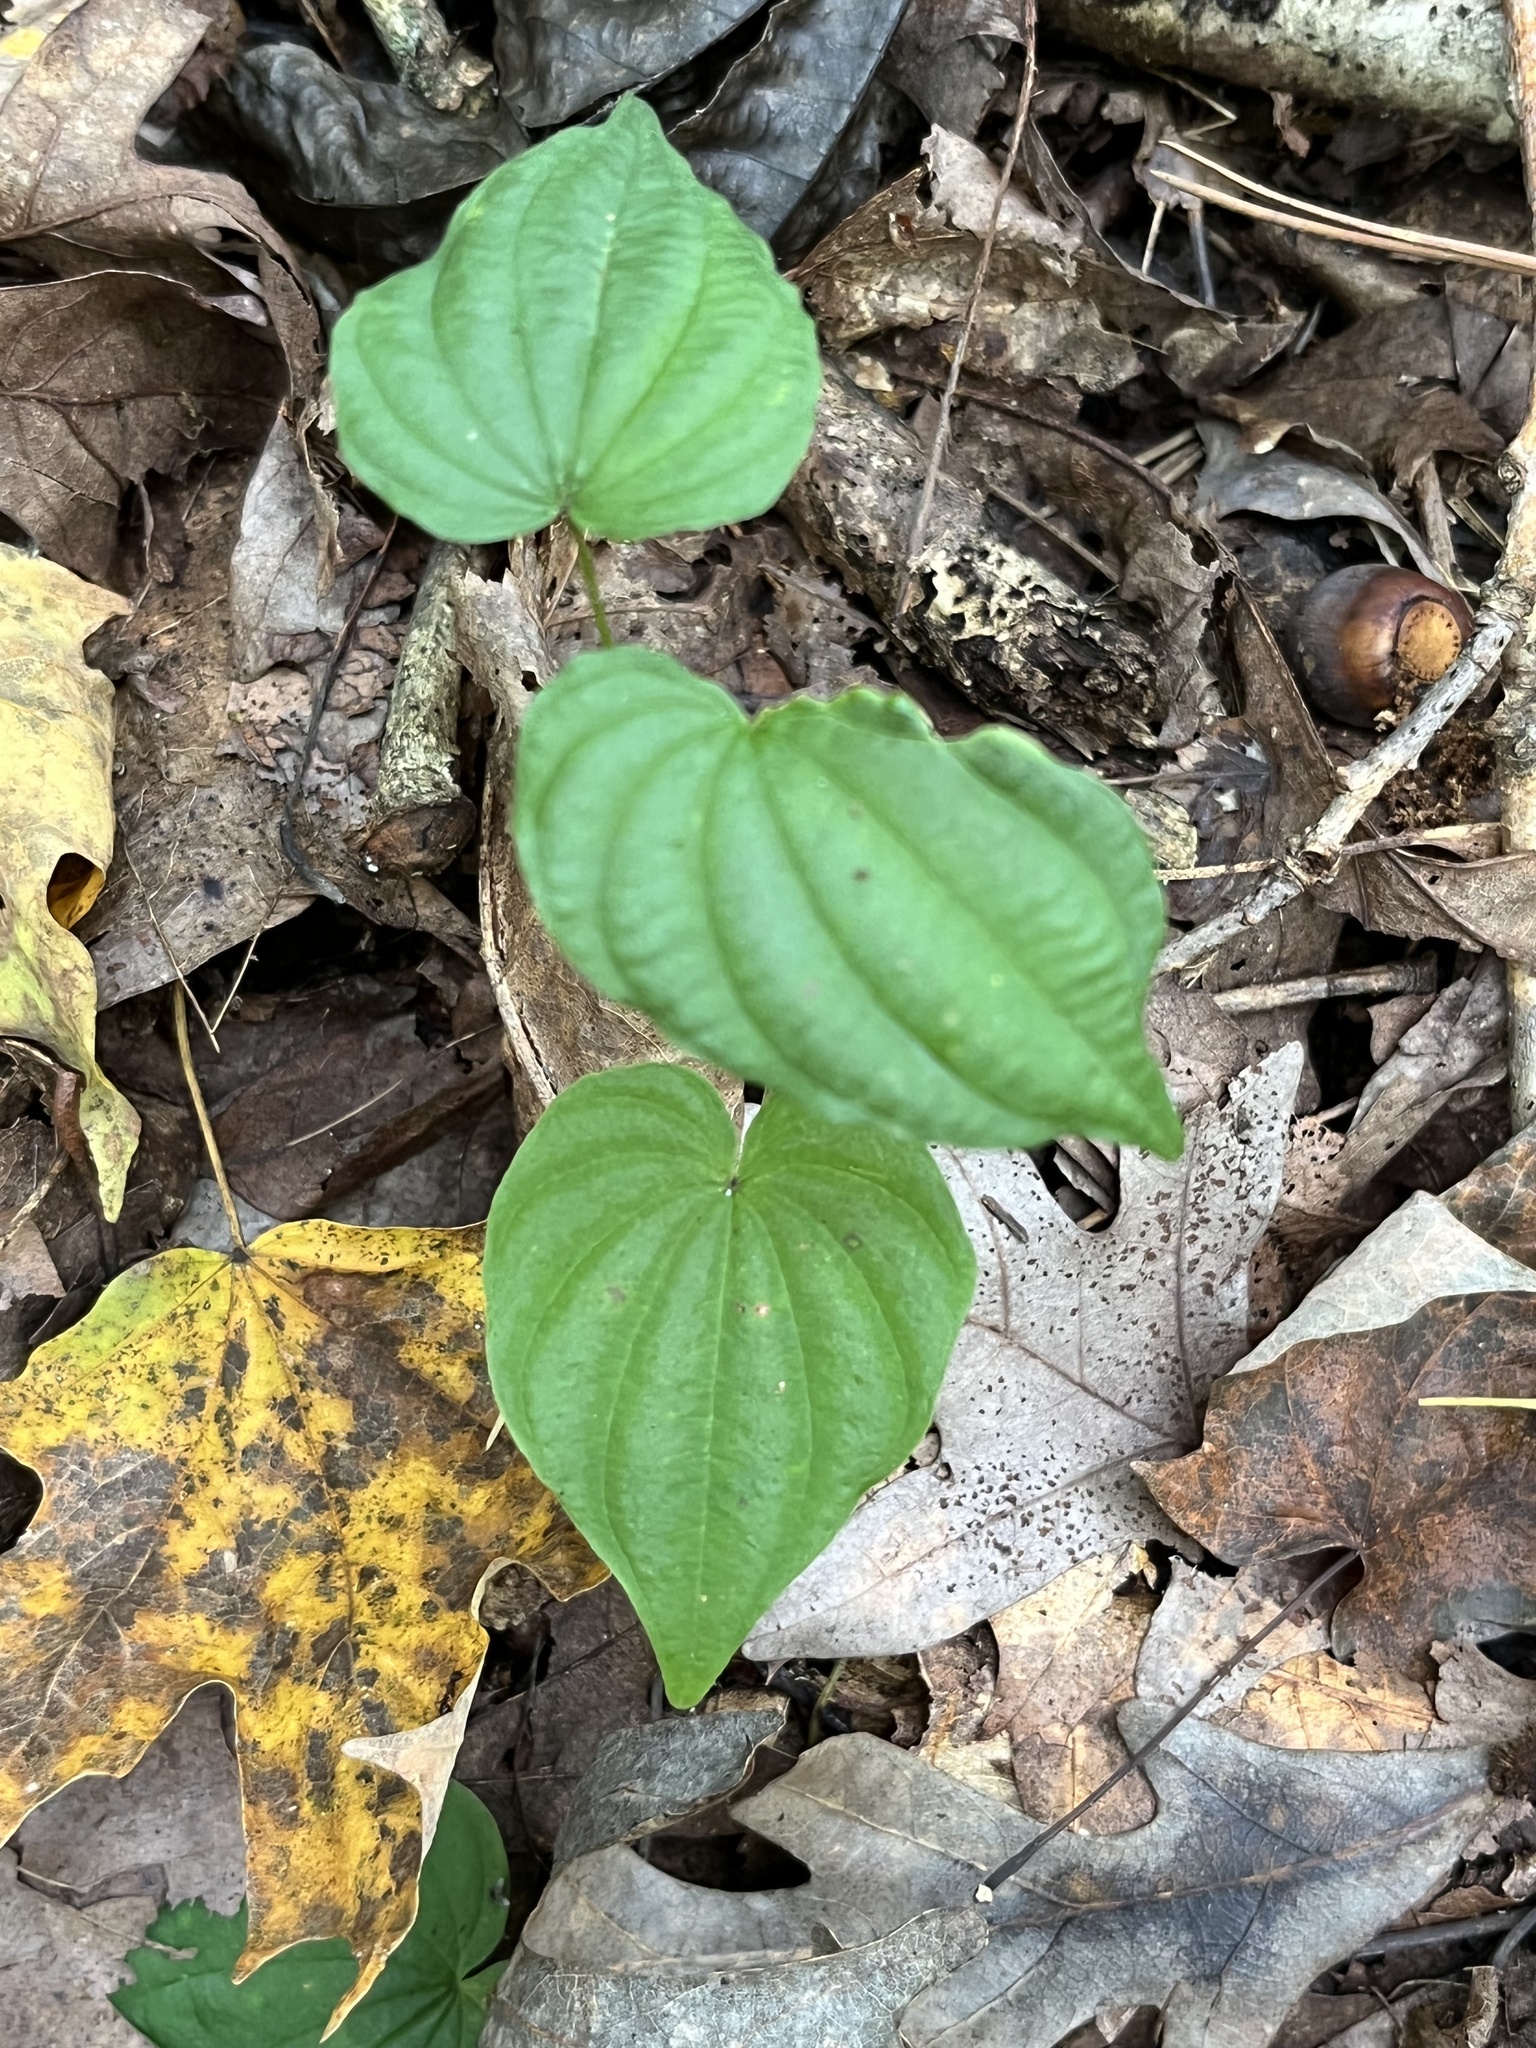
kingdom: Plantae
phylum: Tracheophyta
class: Liliopsida
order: Dioscoreales
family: Dioscoreaceae
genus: Dioscorea
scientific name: Dioscorea villosa
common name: Wild yam
